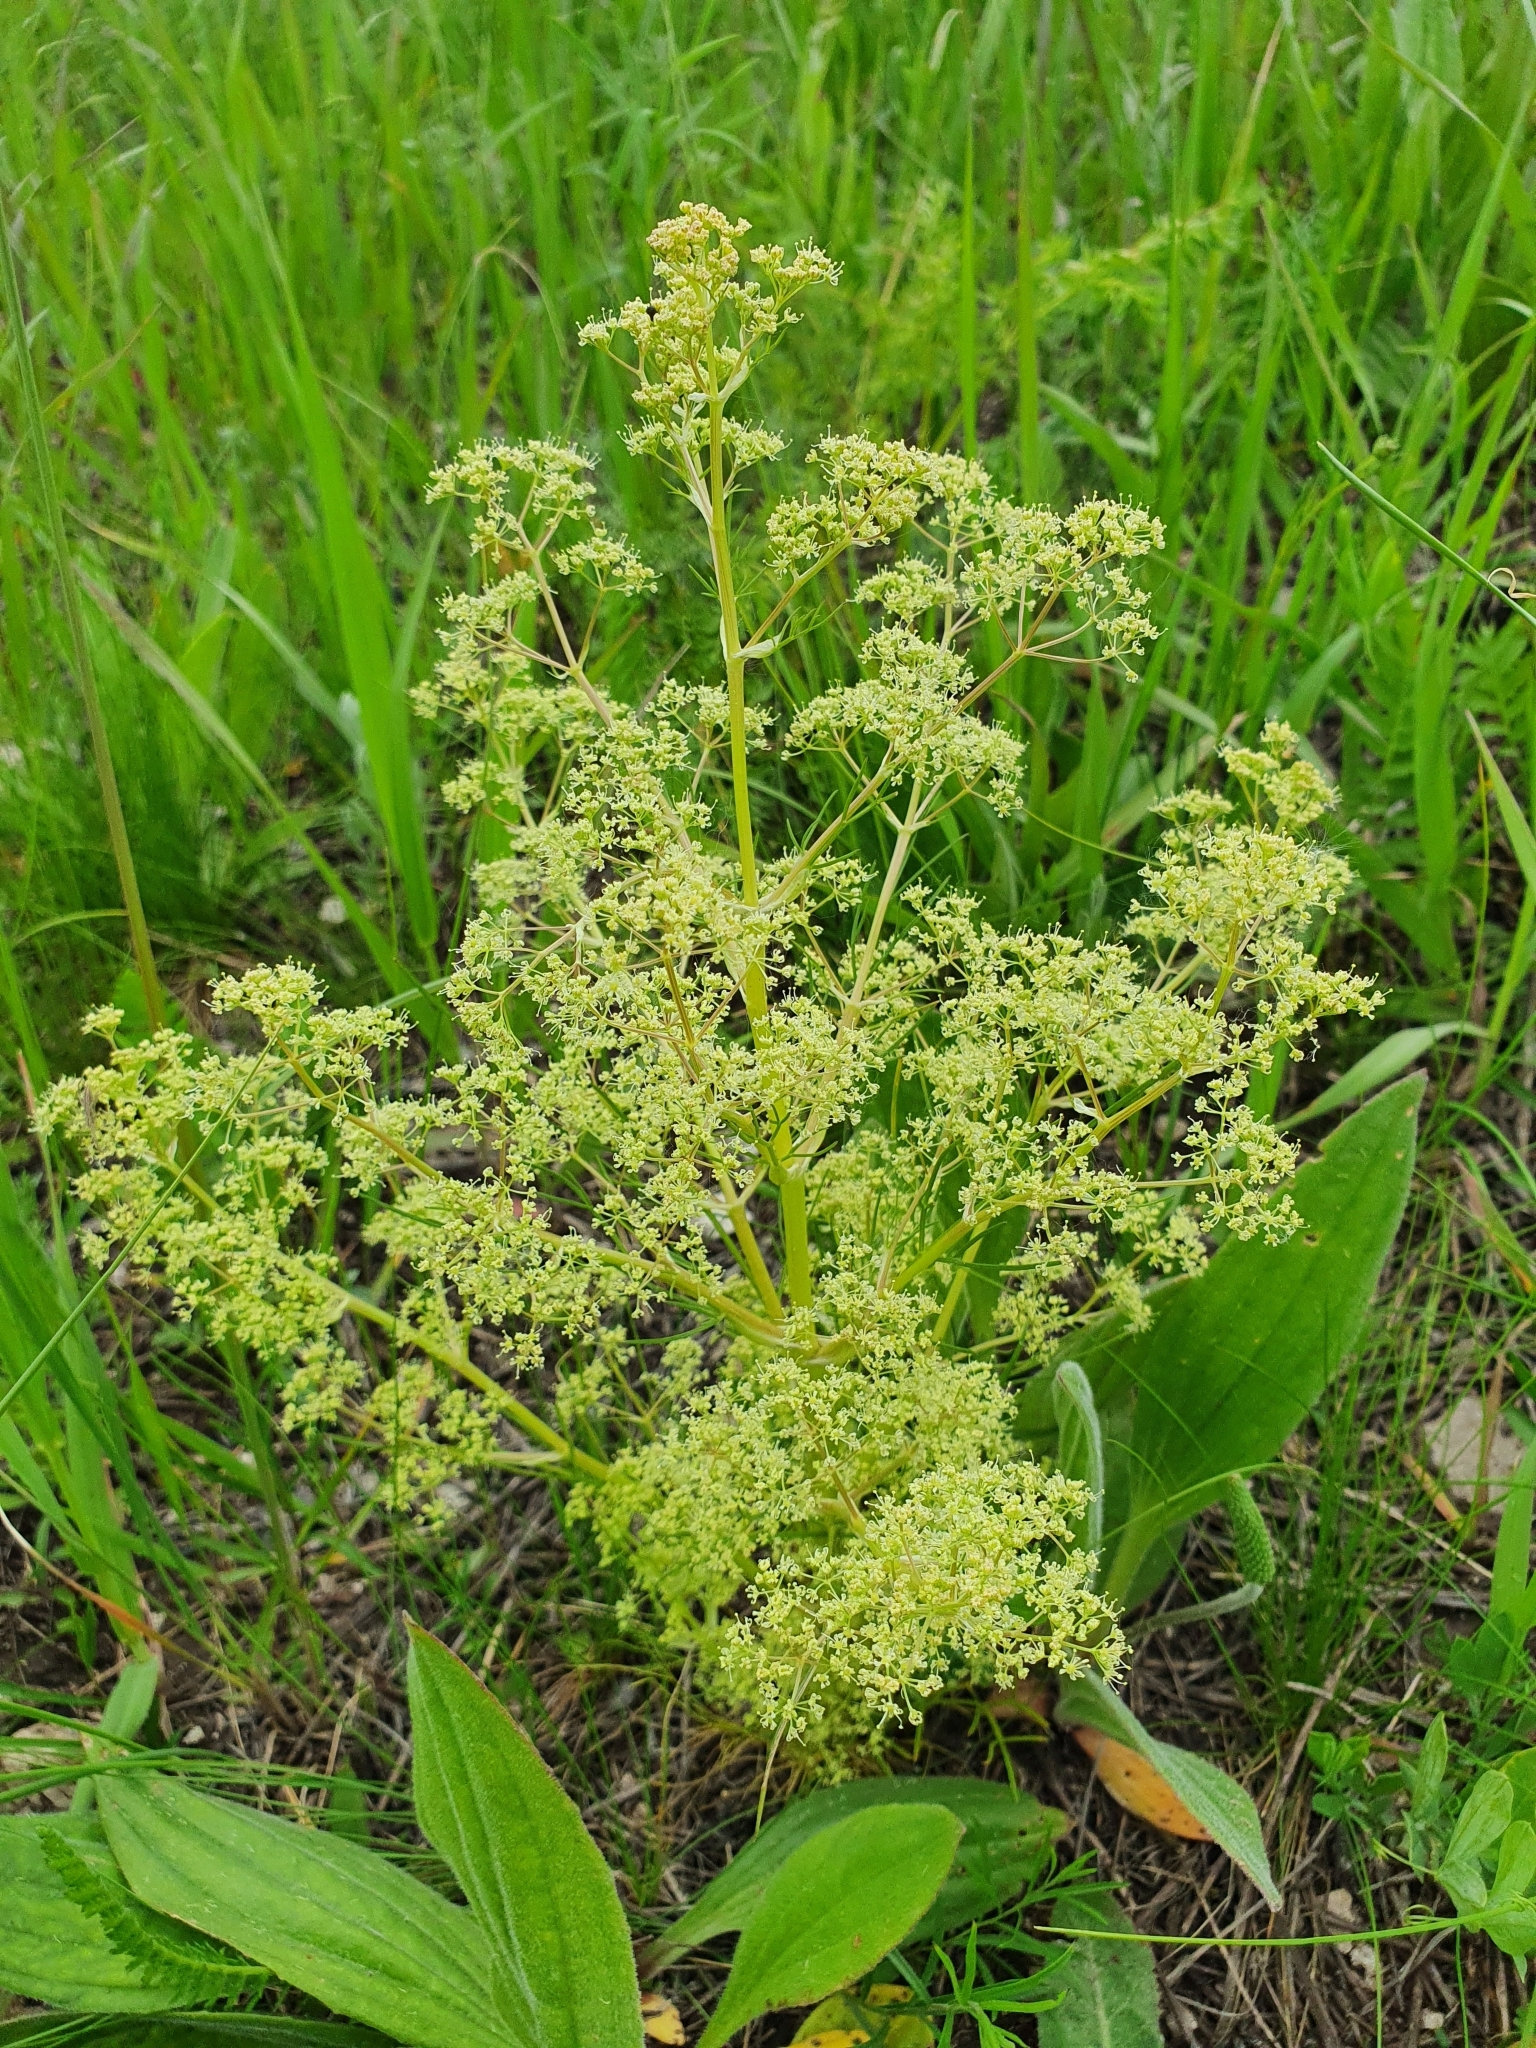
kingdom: Plantae
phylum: Tracheophyta
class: Magnoliopsida
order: Apiales
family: Apiaceae
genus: Trinia
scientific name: Trinia multicaulis
